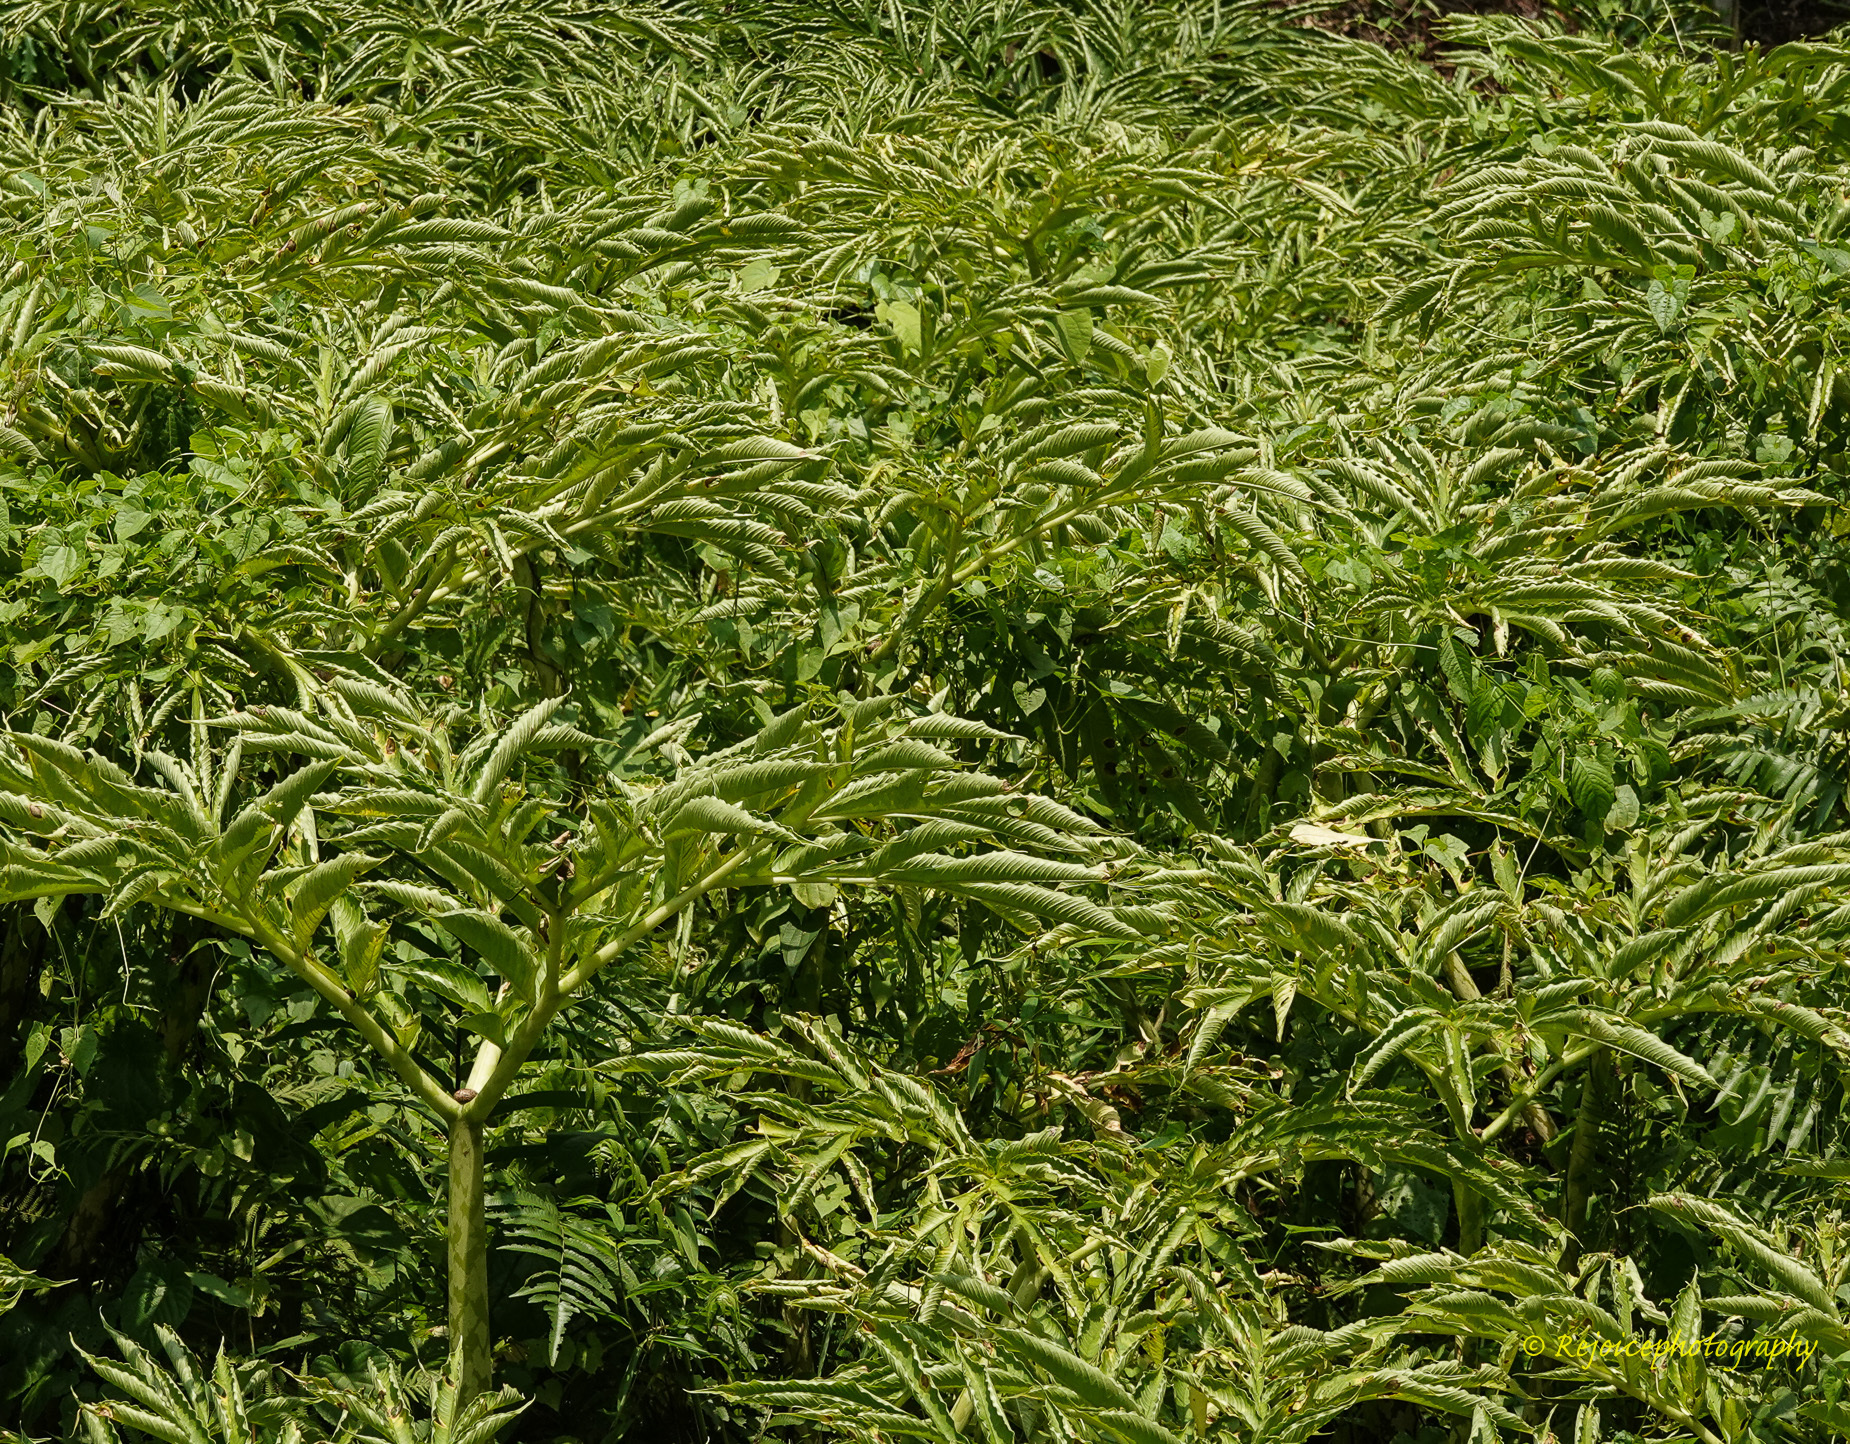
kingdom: Plantae
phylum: Tracheophyta
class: Liliopsida
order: Alismatales
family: Araceae
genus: Amorphophallus
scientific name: Amorphophallus bulbifer
